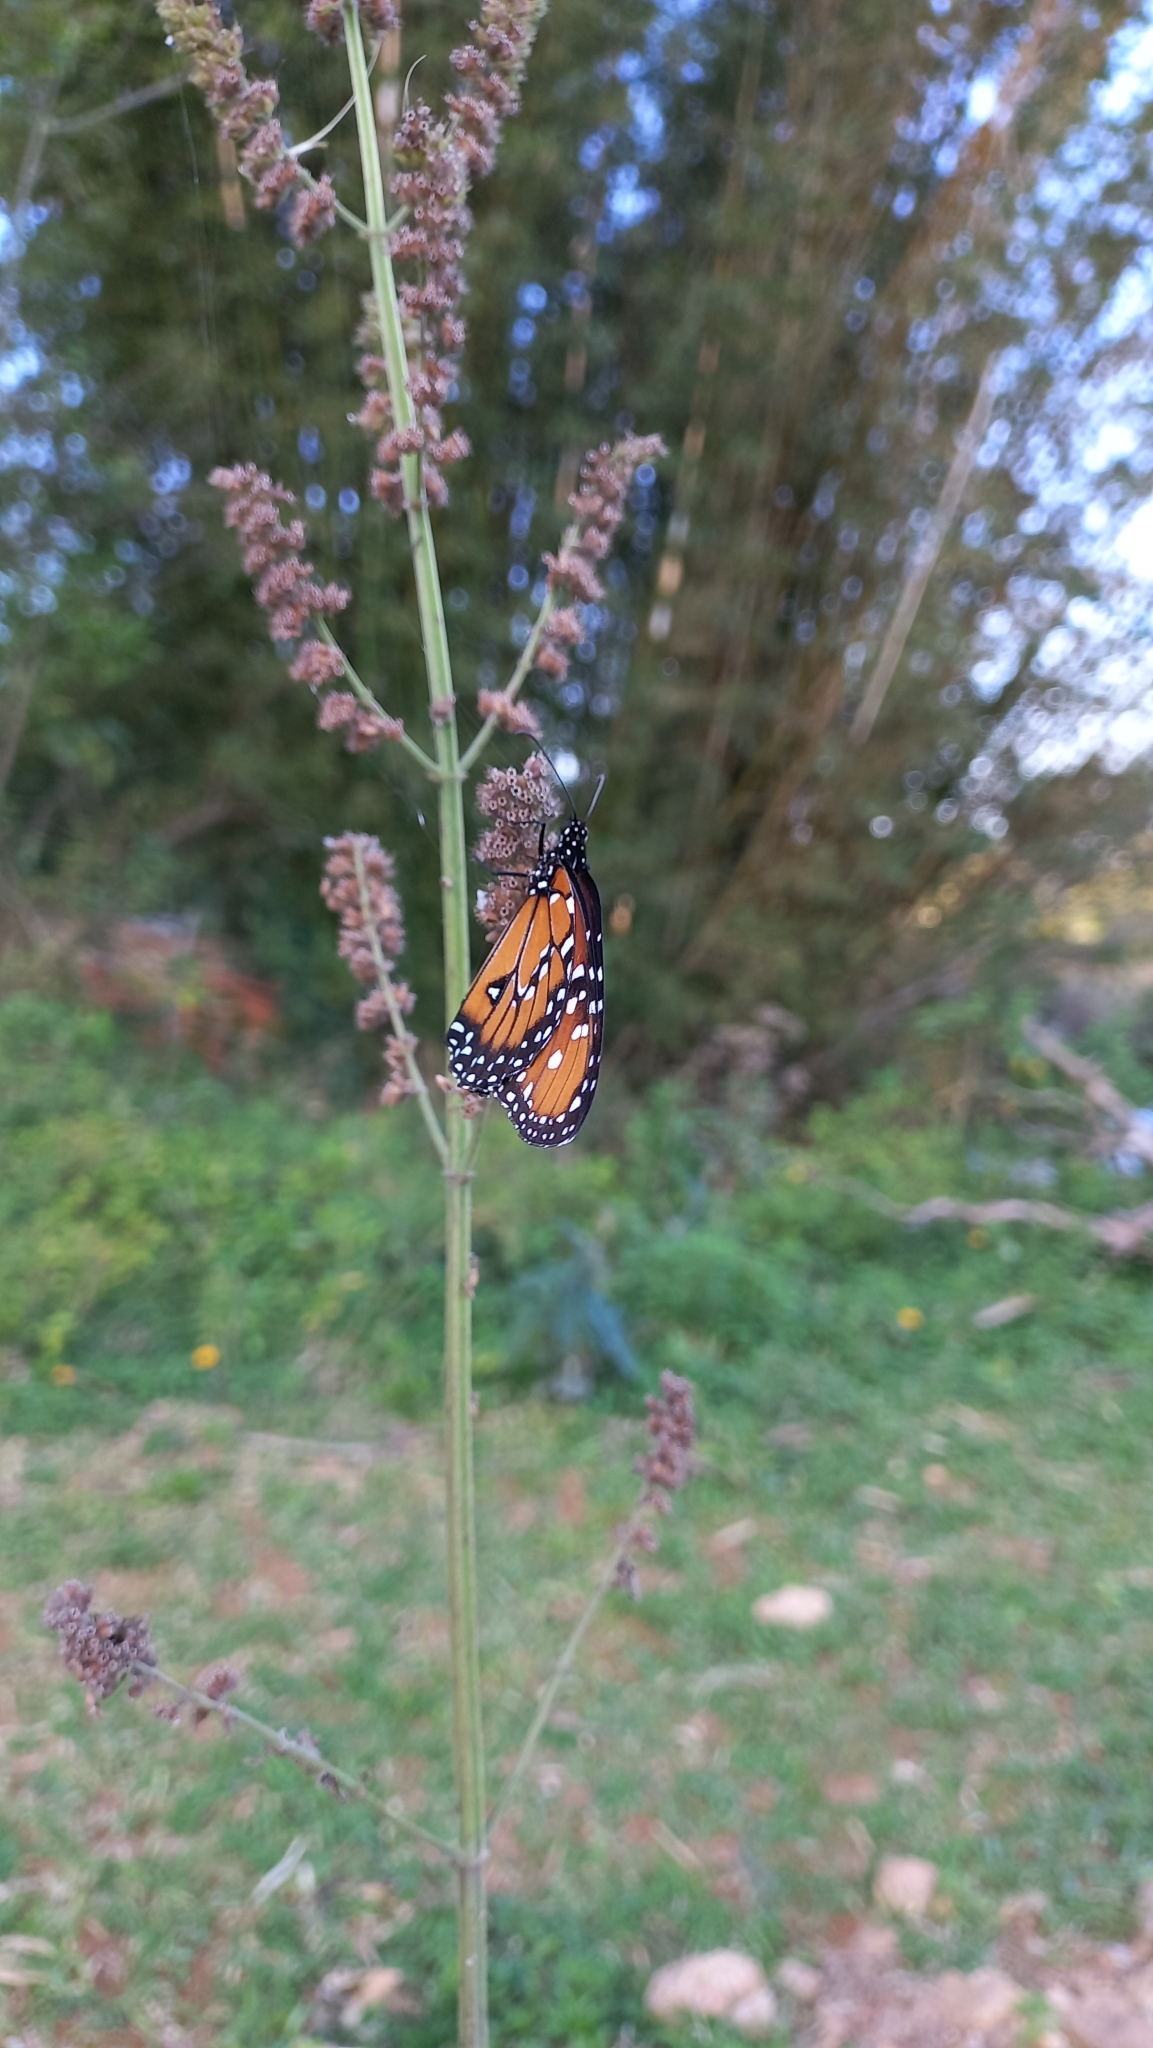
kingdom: Animalia
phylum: Arthropoda
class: Insecta
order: Lepidoptera
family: Nymphalidae
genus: Danaus
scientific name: Danaus gilippus
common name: Queen
